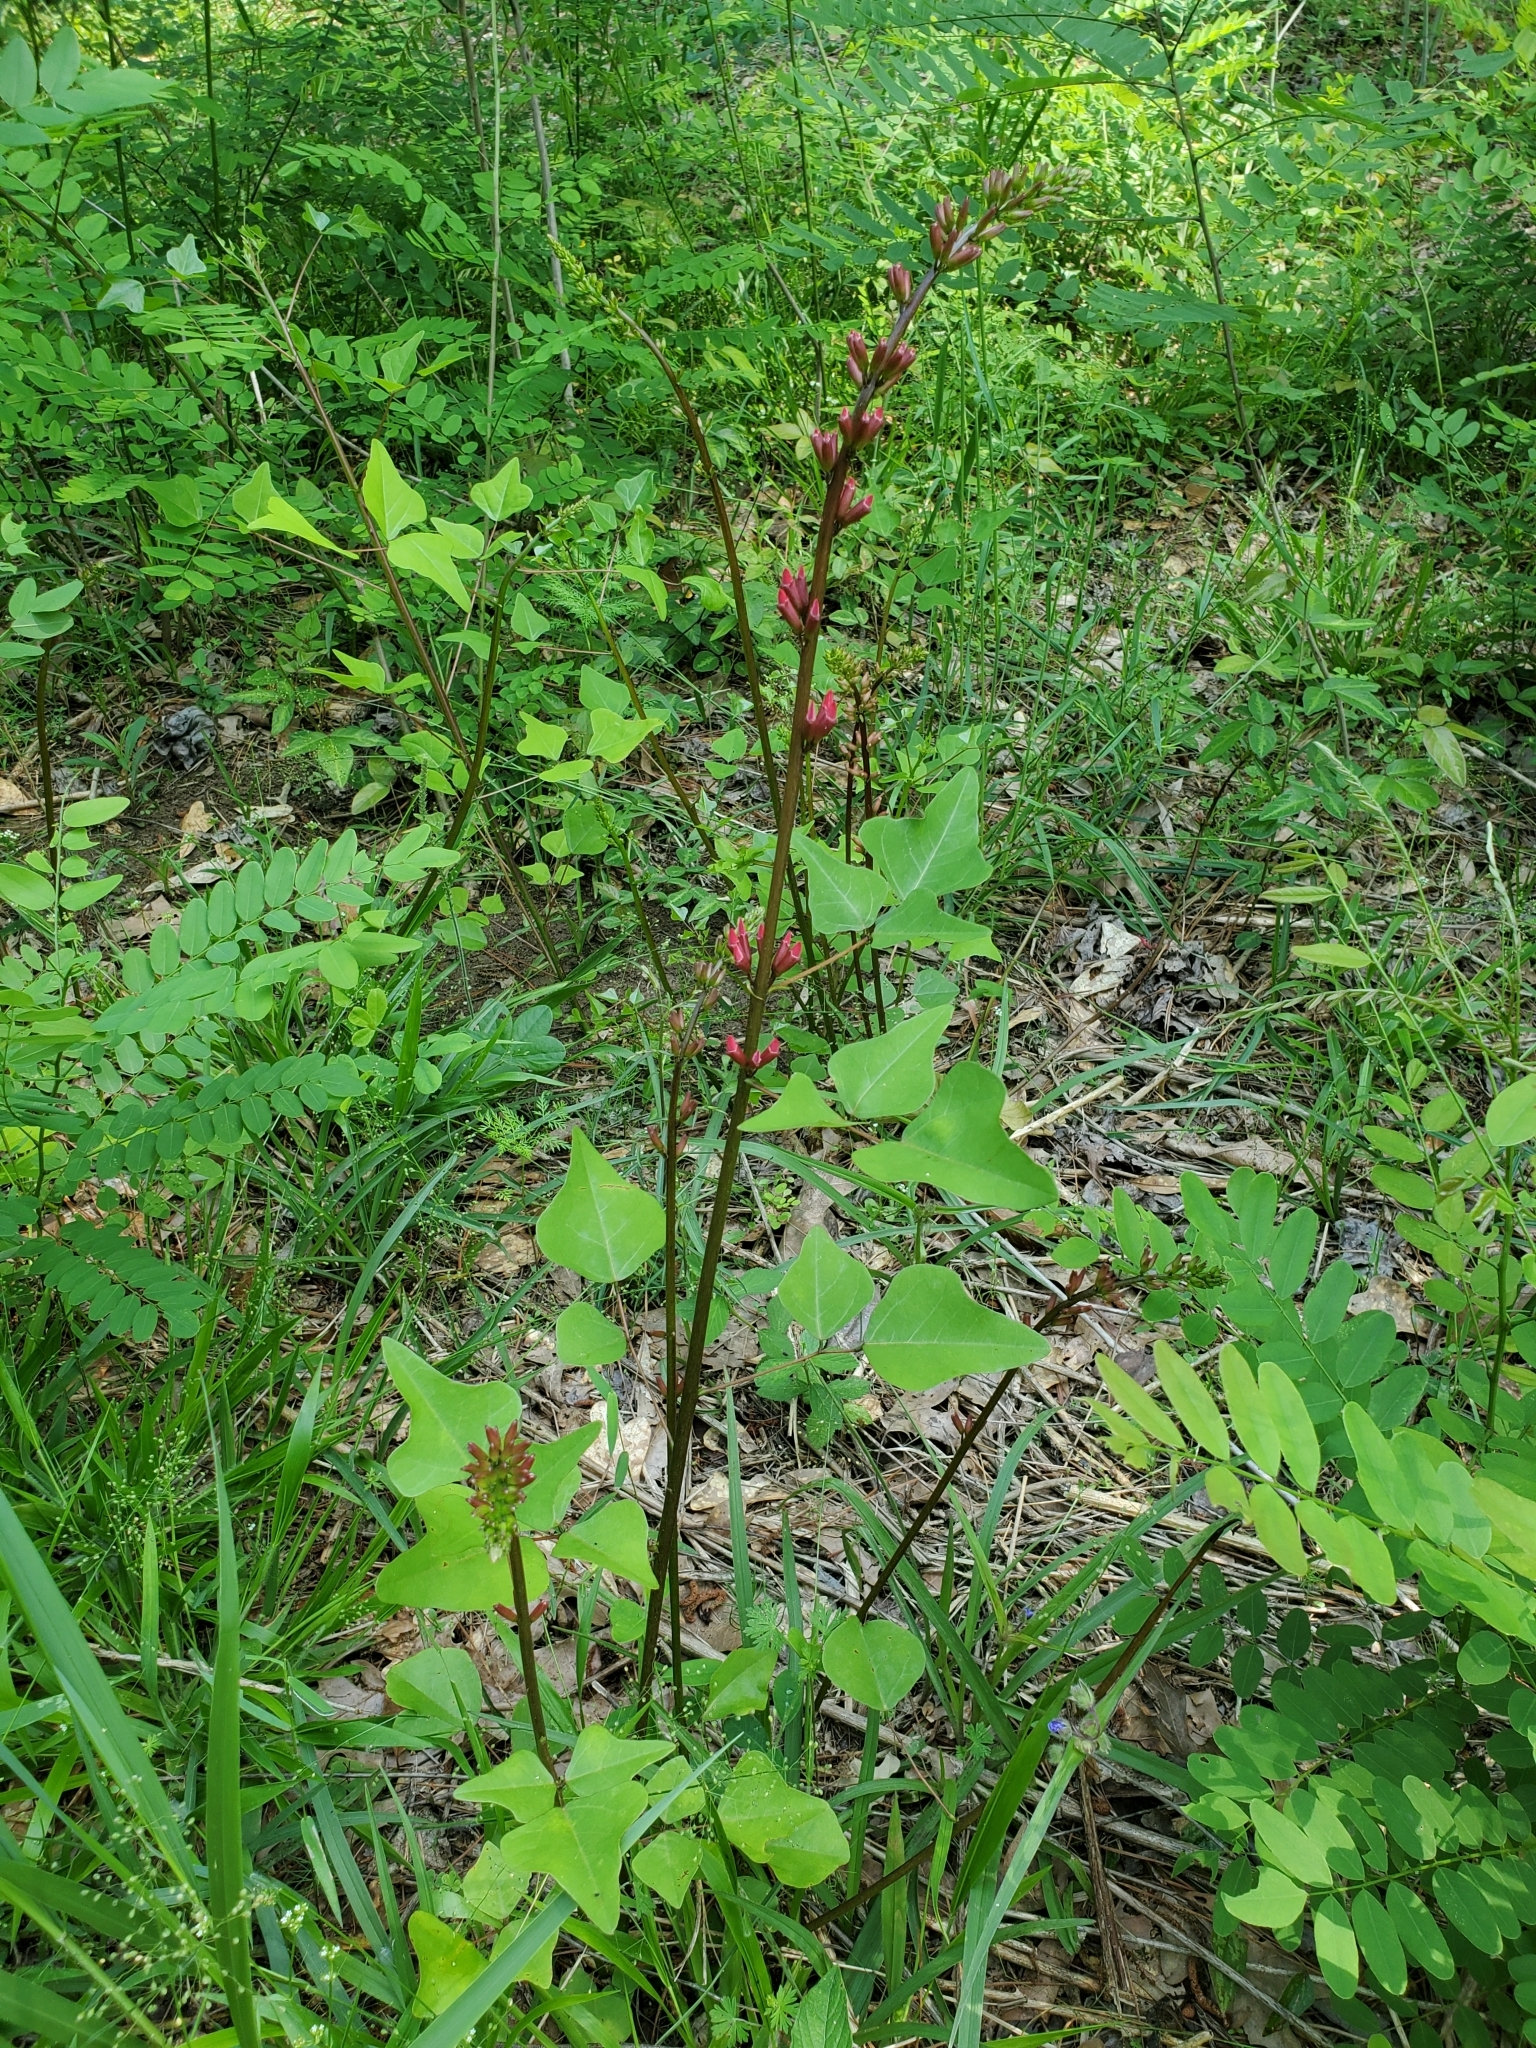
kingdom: Plantae
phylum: Tracheophyta
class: Magnoliopsida
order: Fabales
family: Fabaceae
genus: Erythrina
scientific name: Erythrina herbacea
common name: Coral-bean
